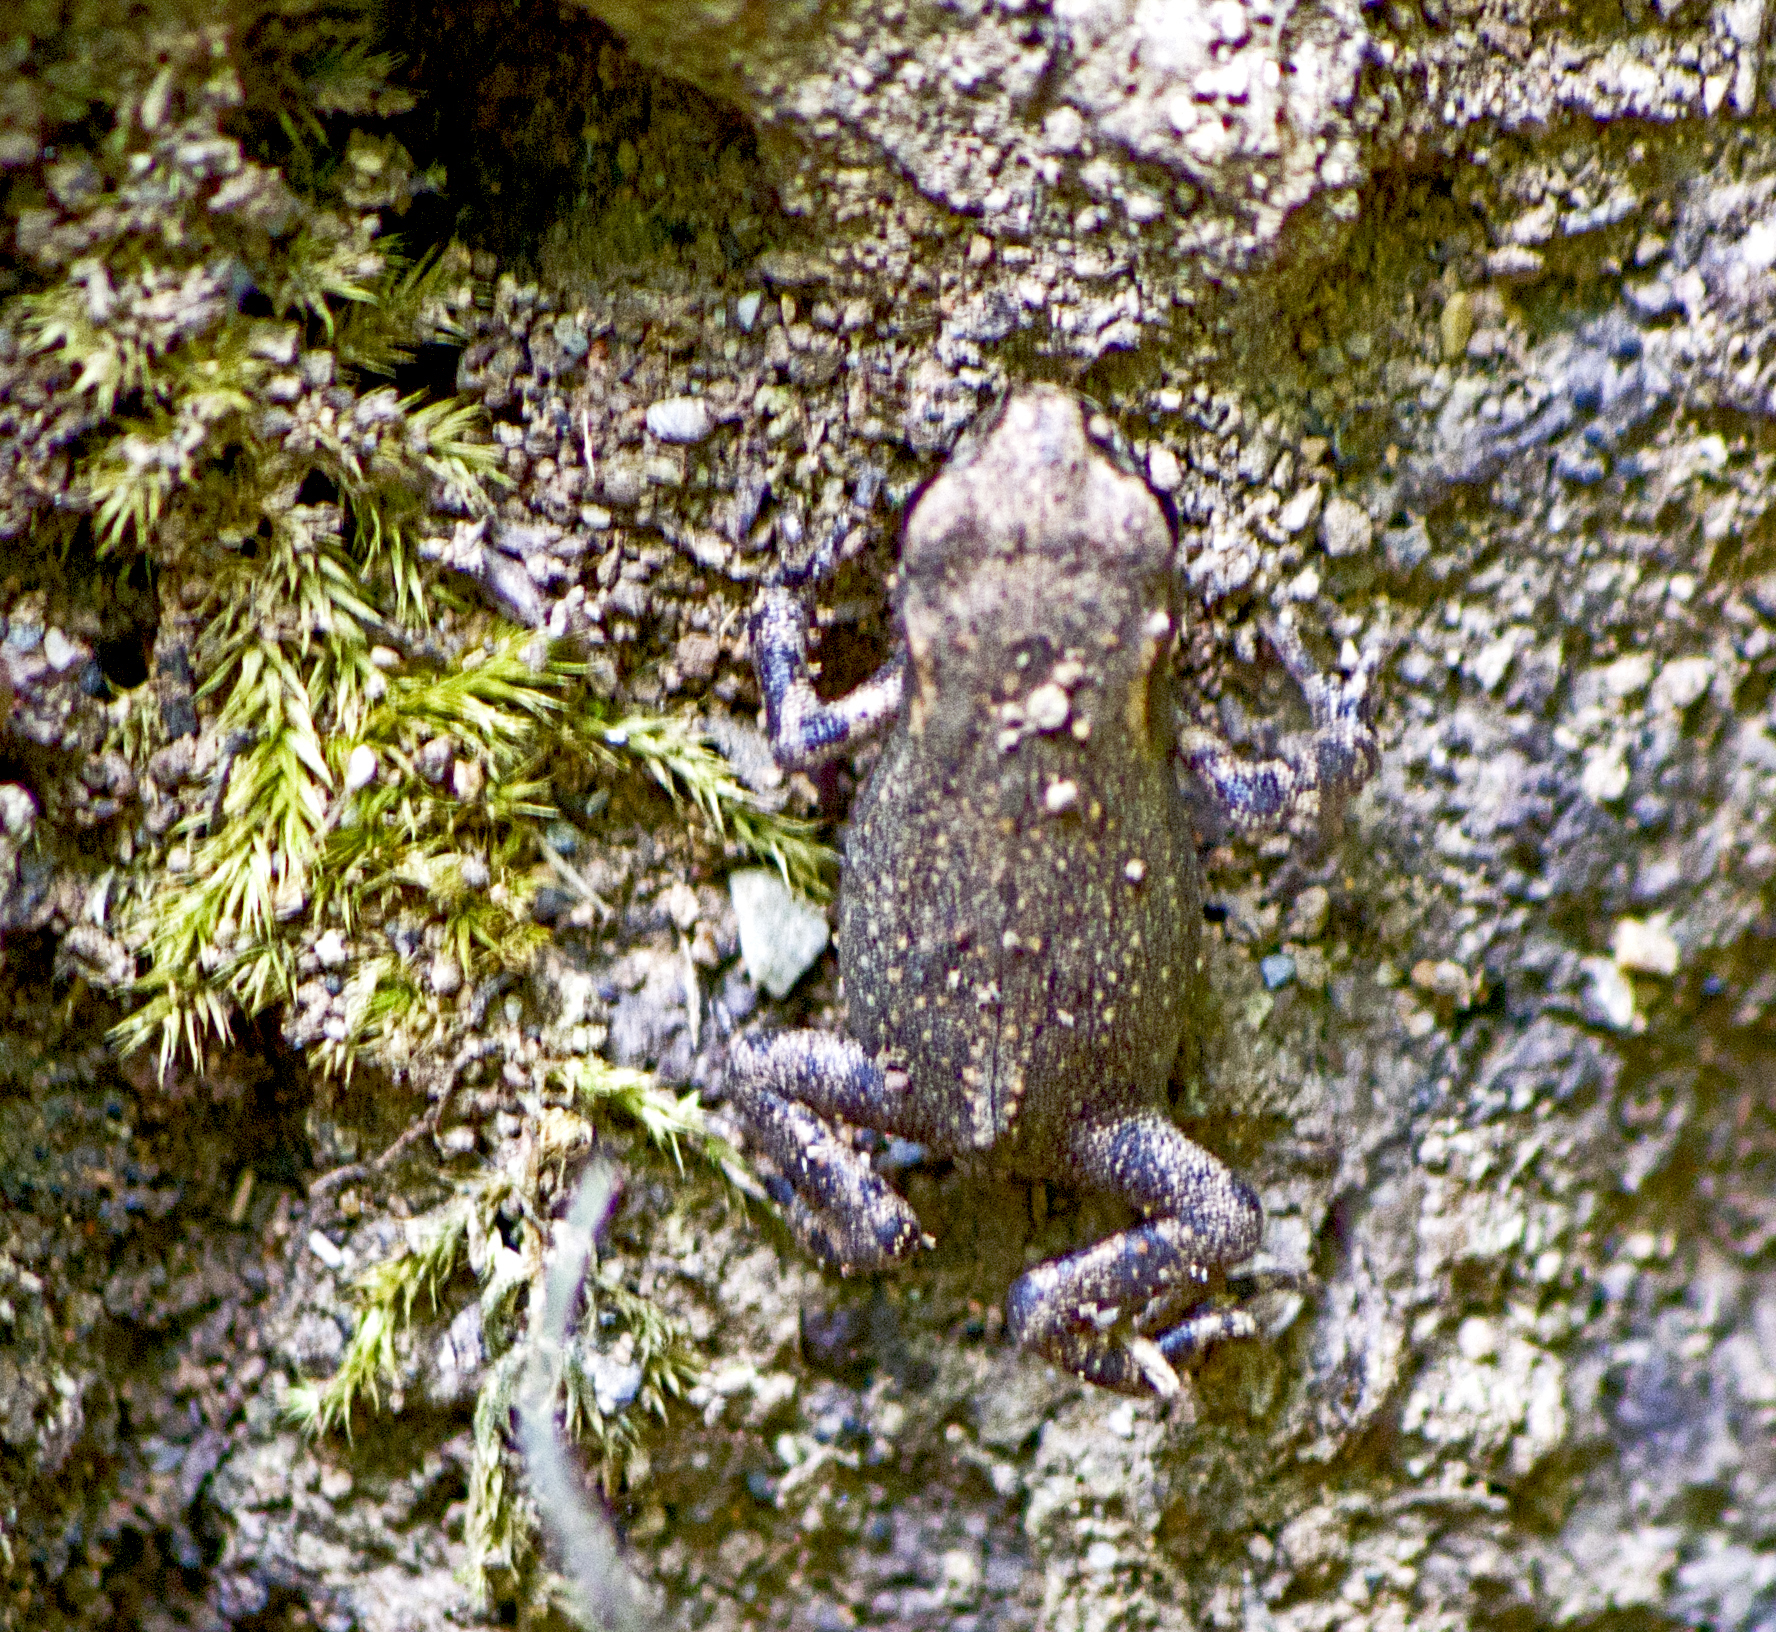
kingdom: Animalia
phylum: Chordata
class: Amphibia
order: Anura
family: Bufonidae
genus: Bufo
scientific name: Bufo bufo
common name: Common toad
